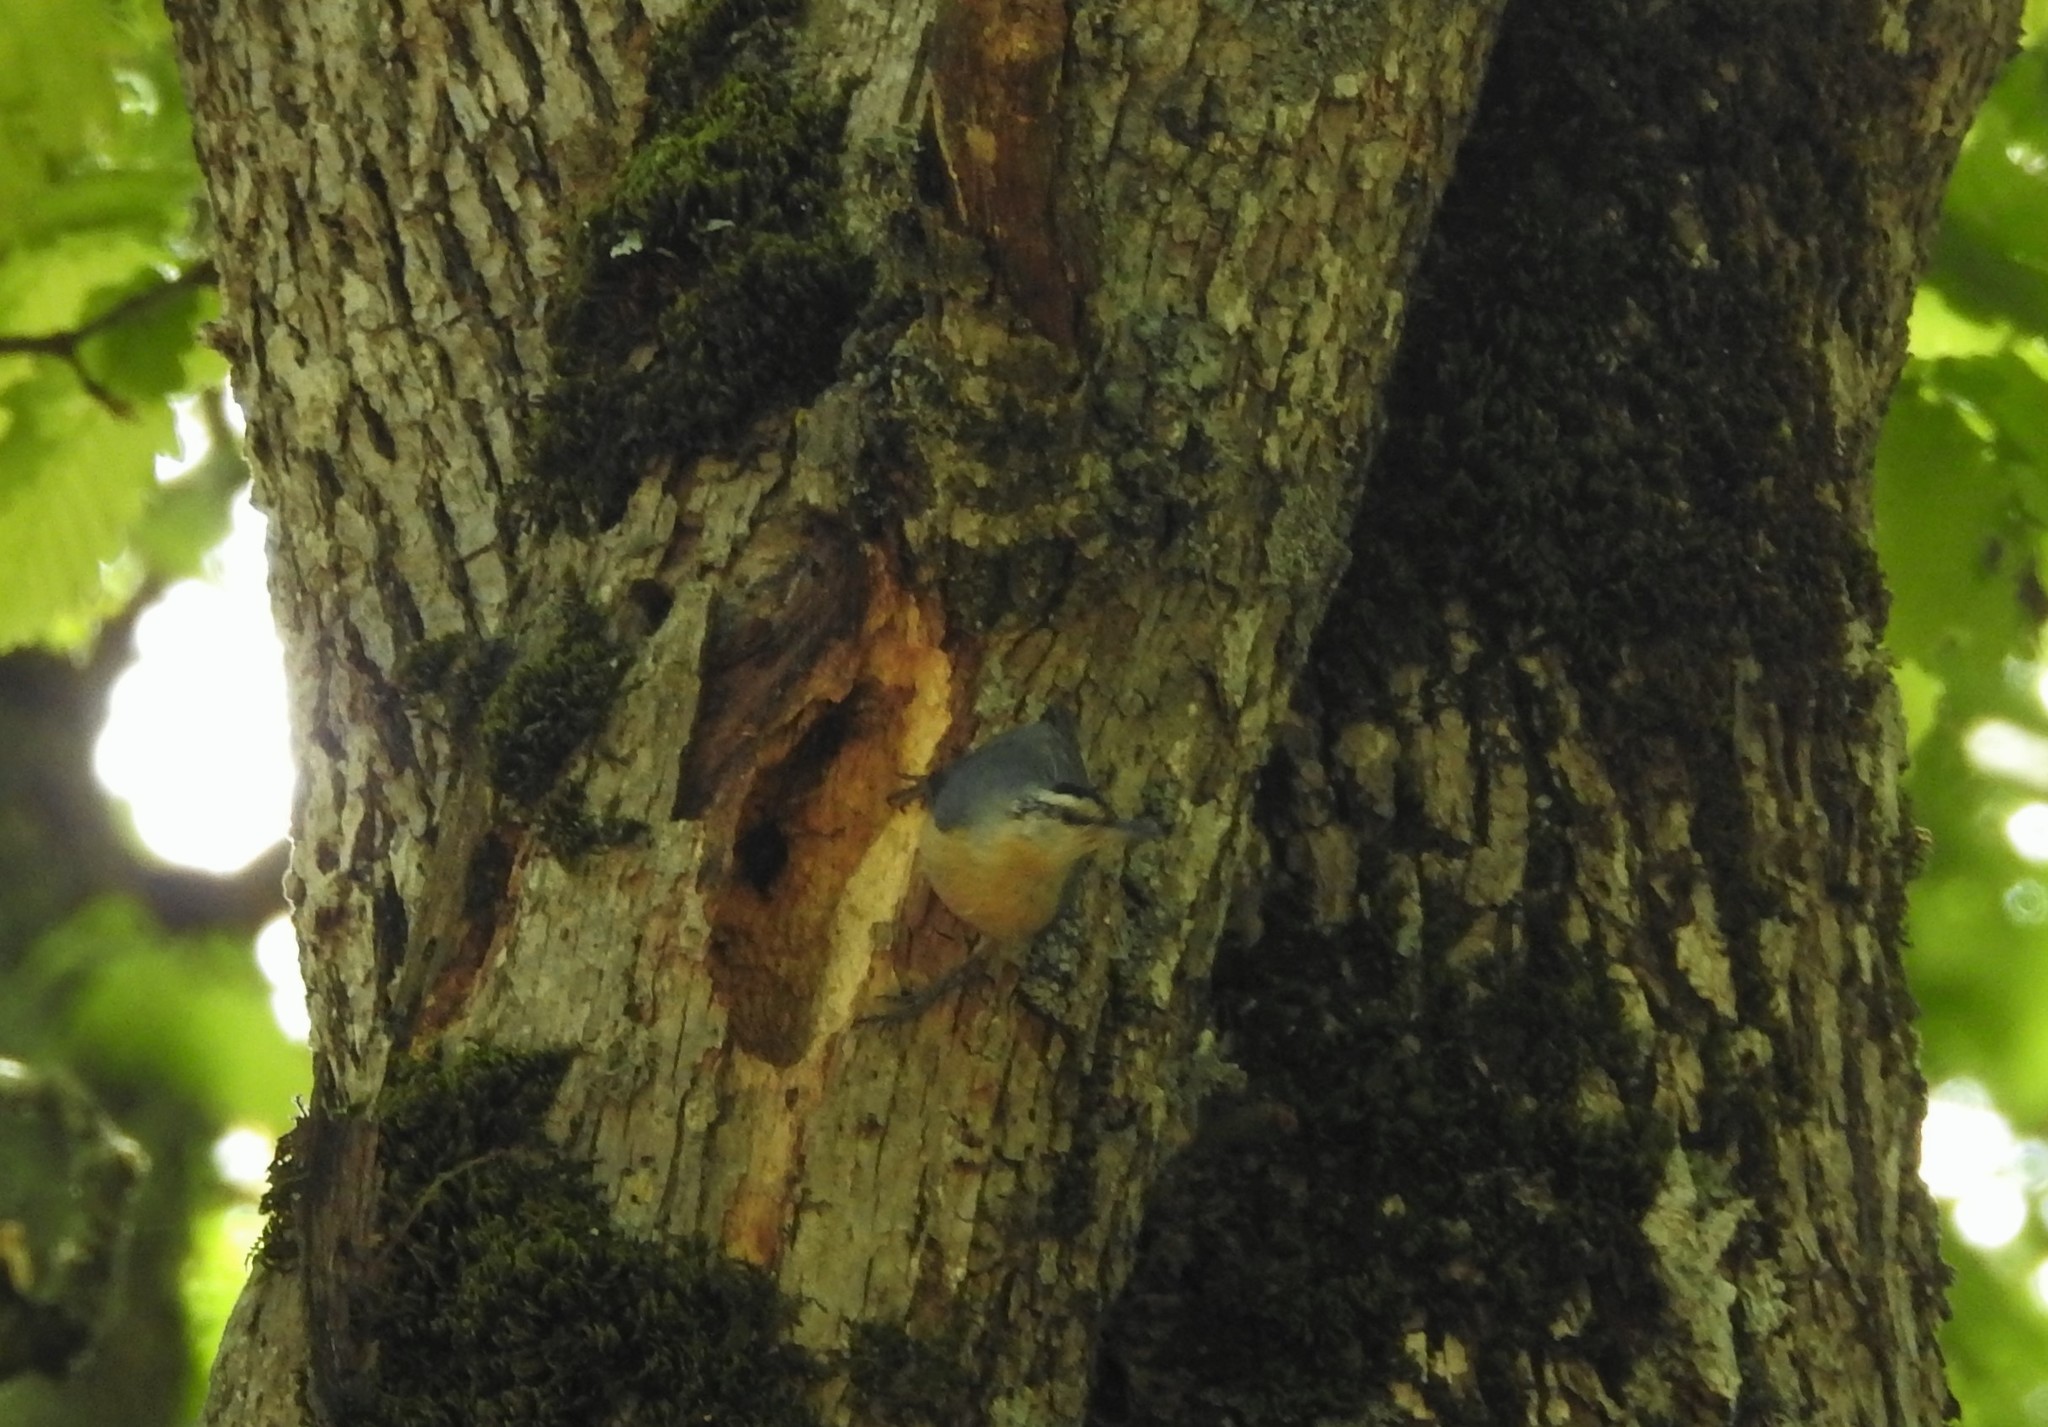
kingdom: Animalia
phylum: Chordata
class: Aves
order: Passeriformes
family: Sittidae
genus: Sitta
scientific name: Sitta ledanti
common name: Algerian nuthatch
